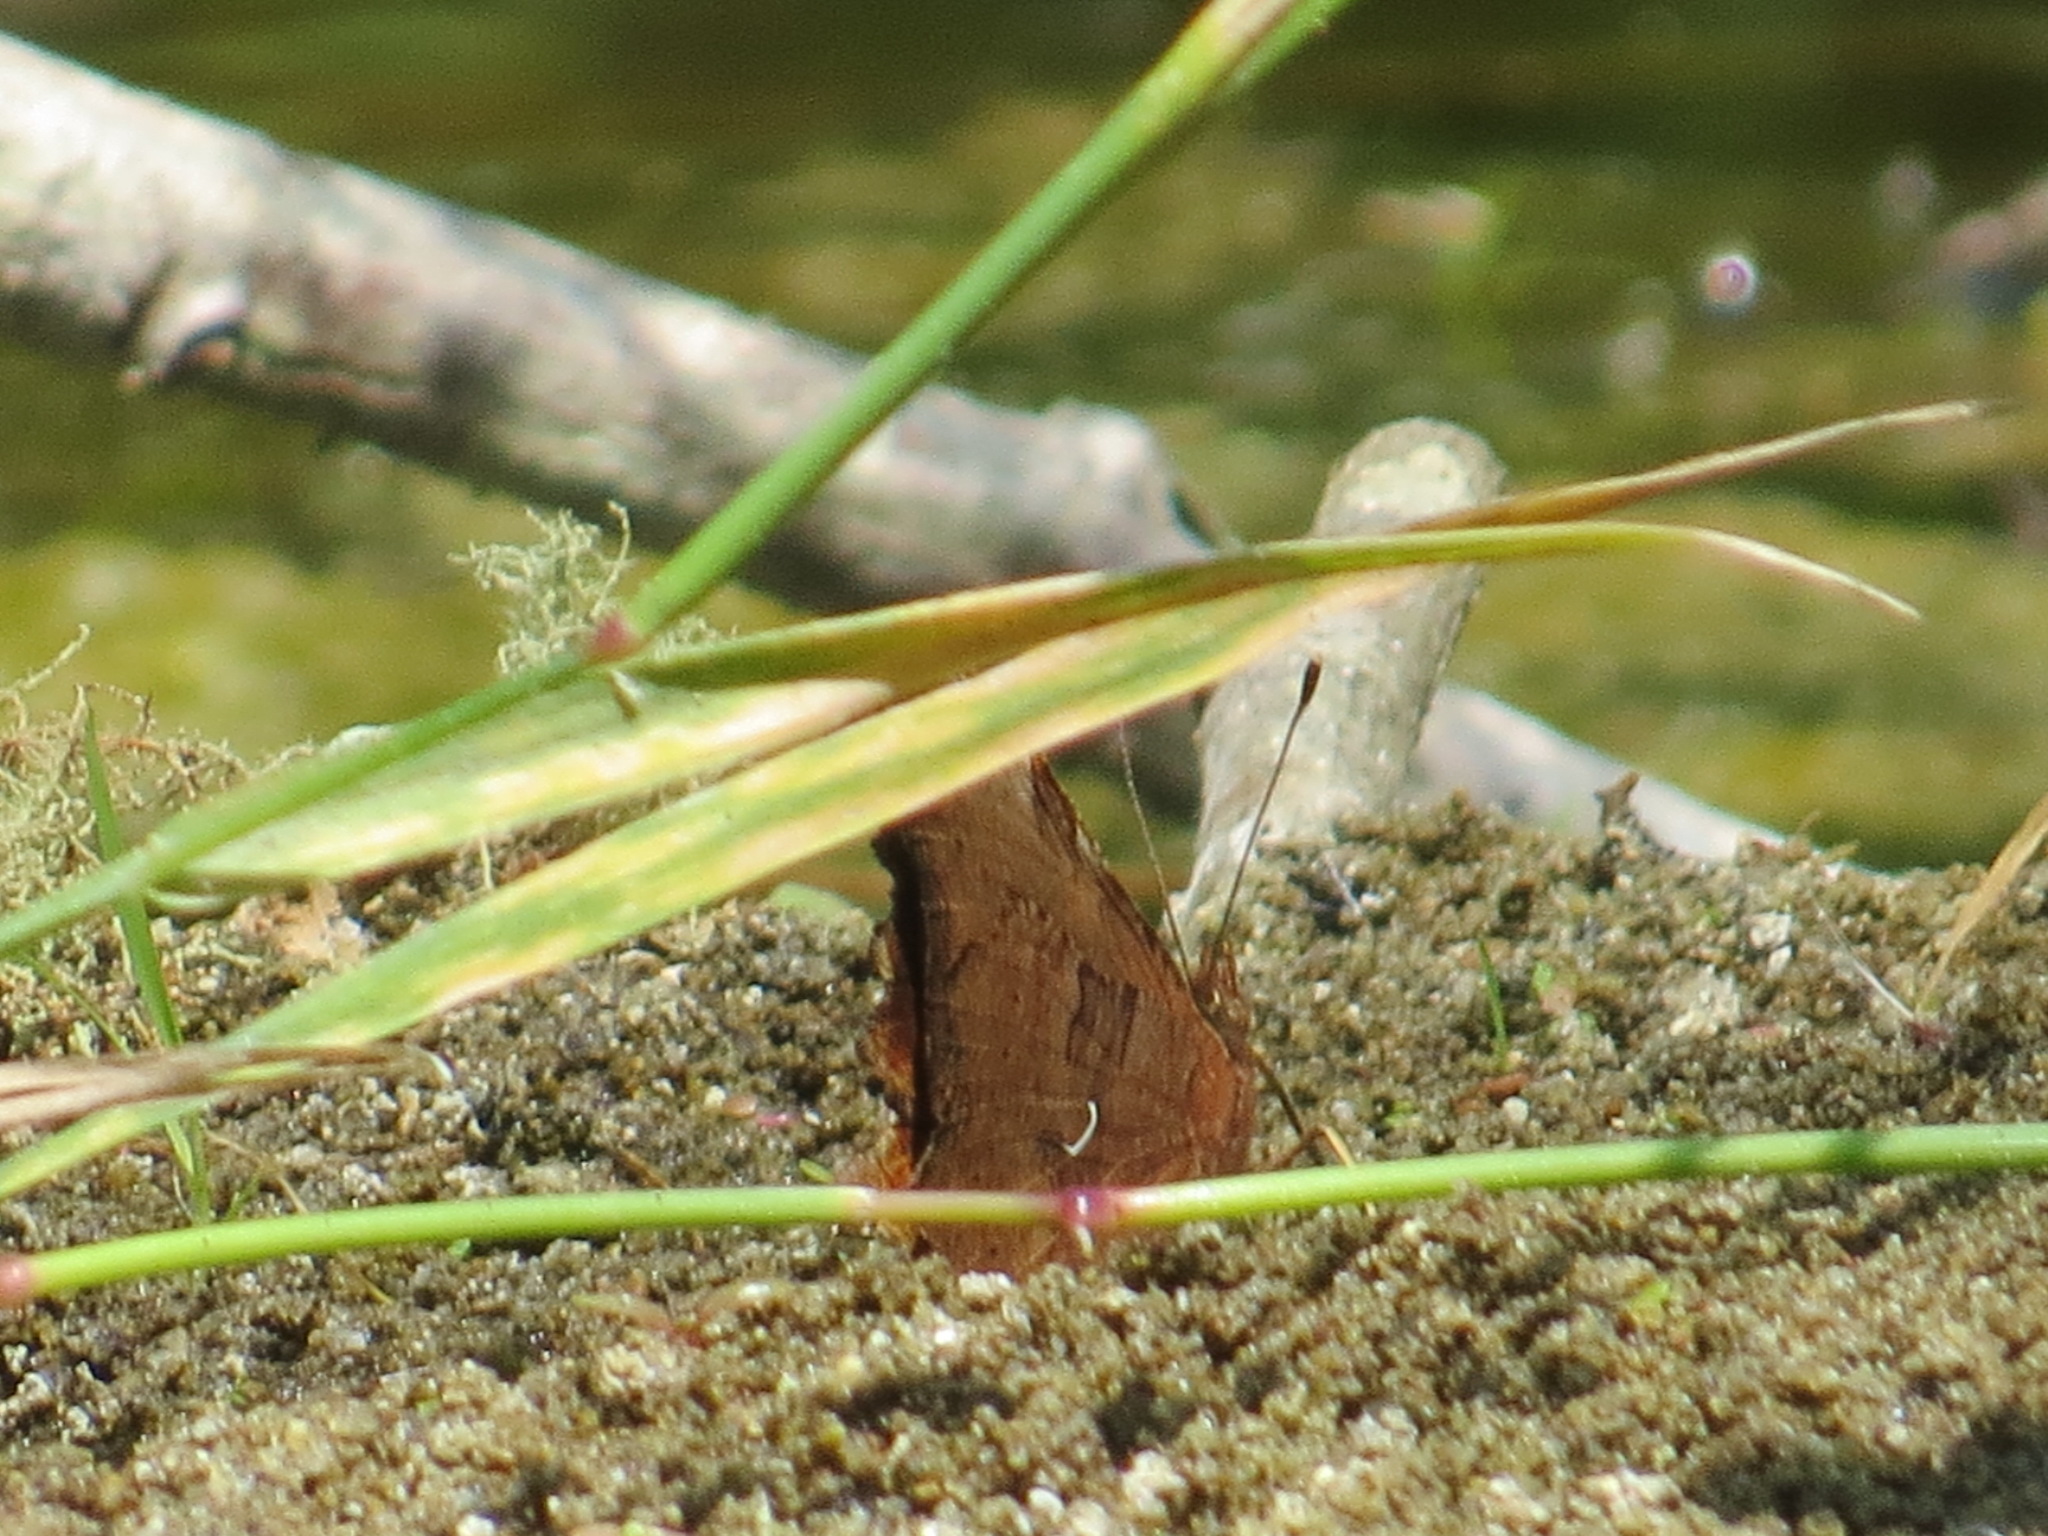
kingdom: Animalia
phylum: Arthropoda
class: Insecta
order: Lepidoptera
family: Nymphalidae
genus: Polygonia
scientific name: Polygonia satyrus
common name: Satyr angle wing
